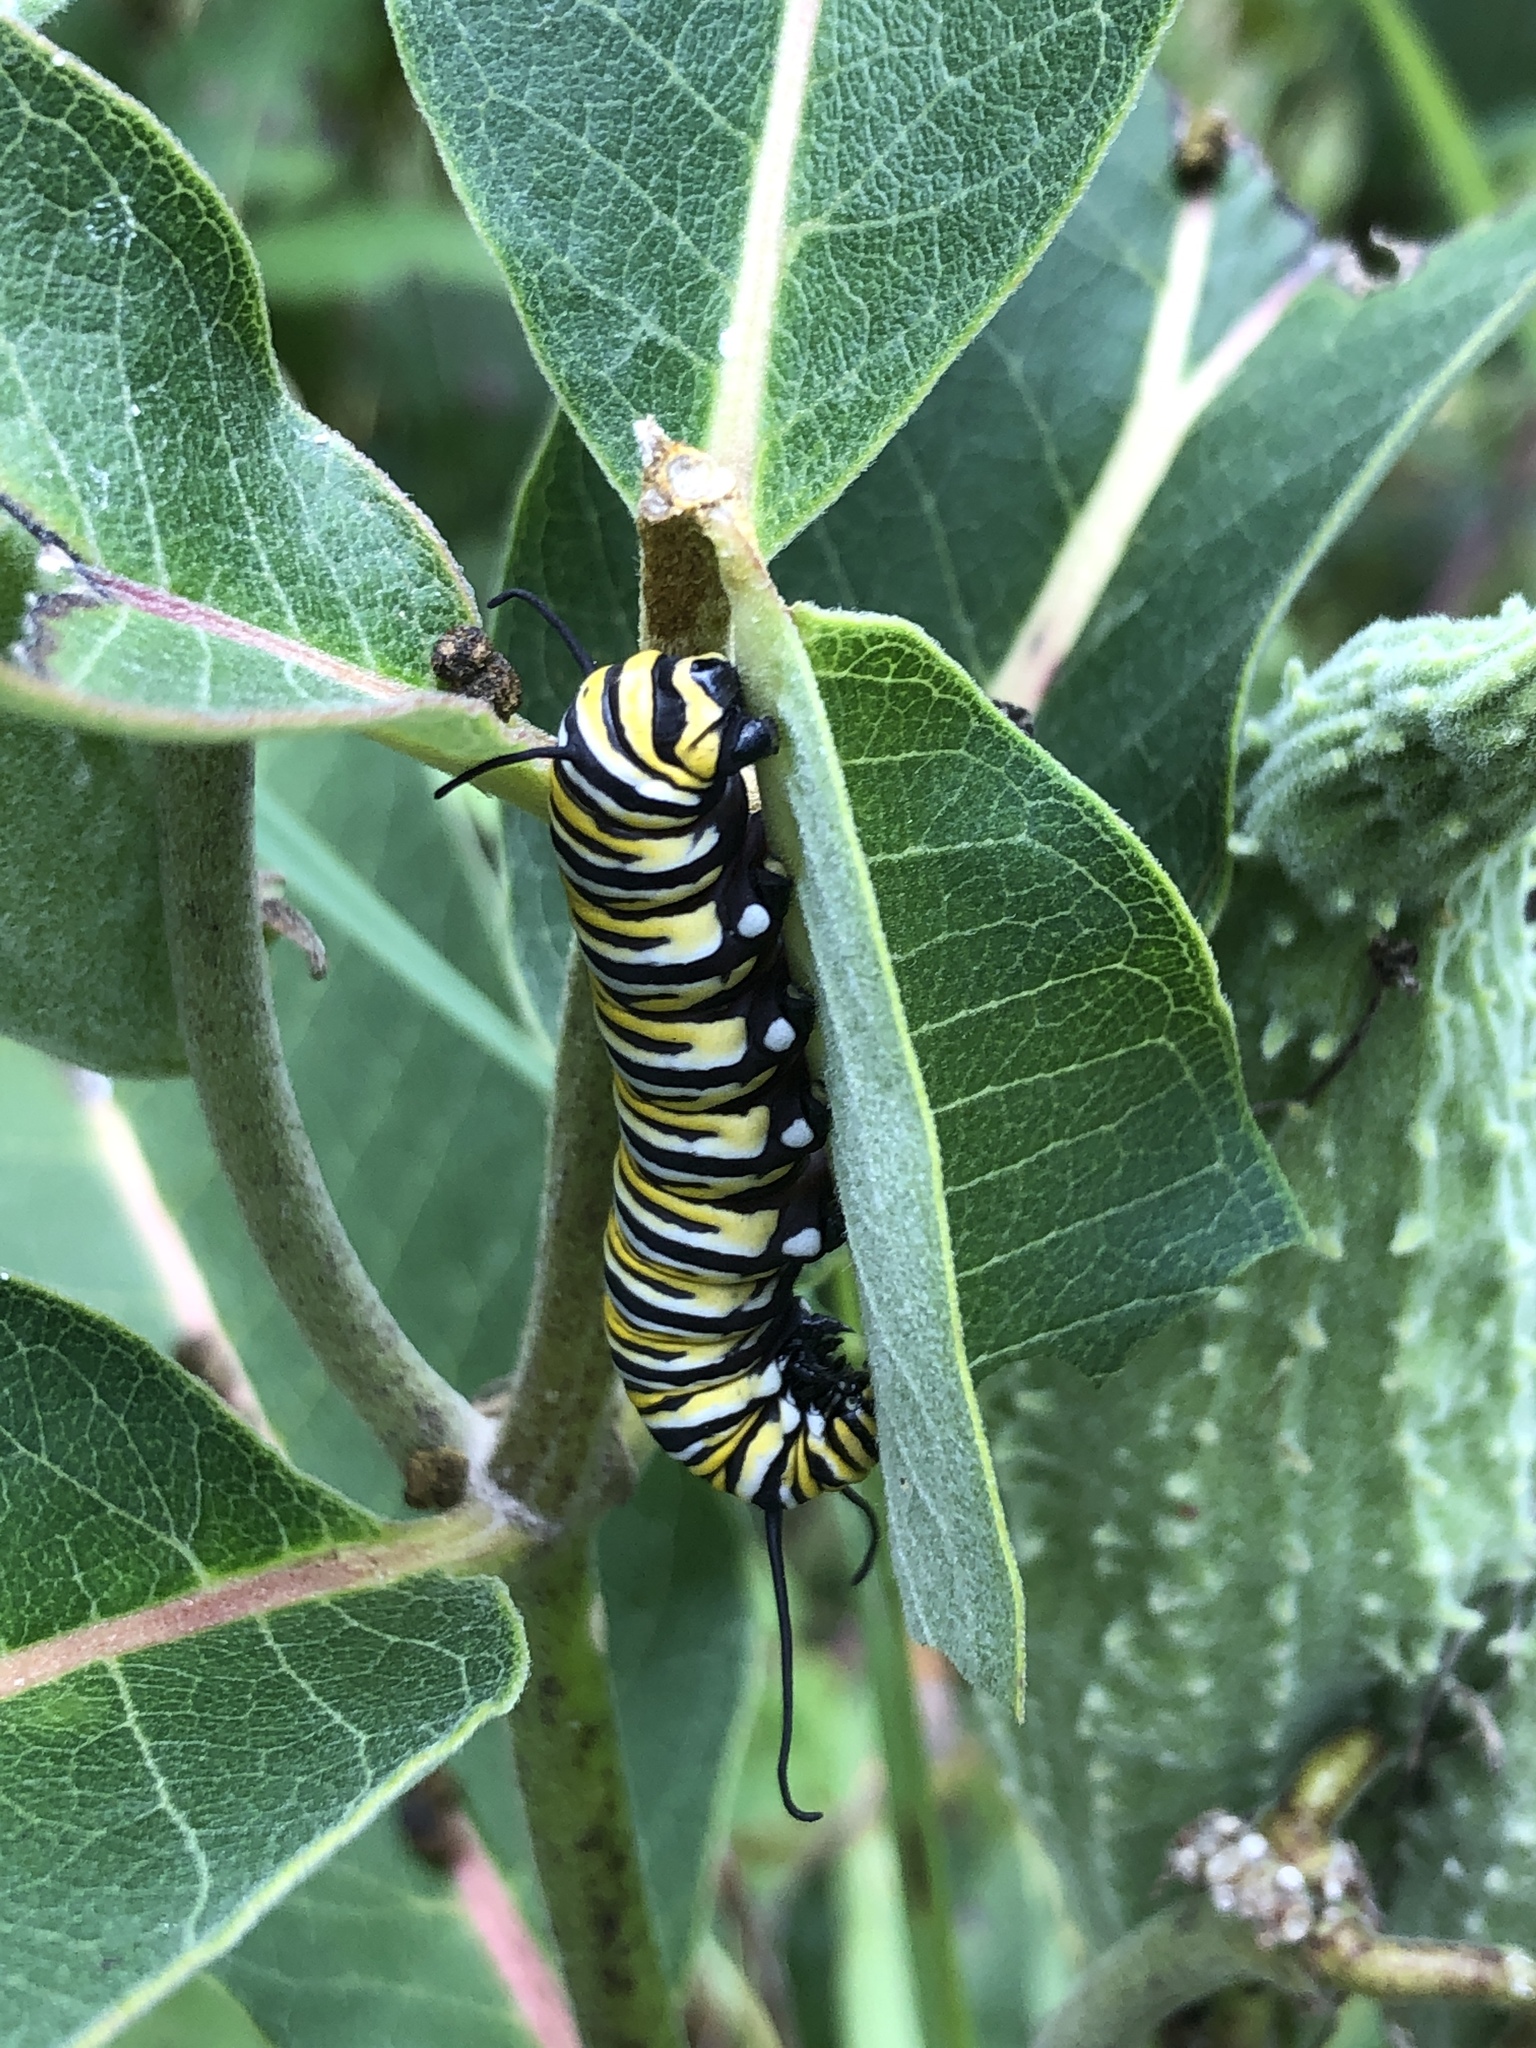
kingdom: Animalia
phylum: Arthropoda
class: Insecta
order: Lepidoptera
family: Nymphalidae
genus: Danaus
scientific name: Danaus plexippus
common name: Monarch
